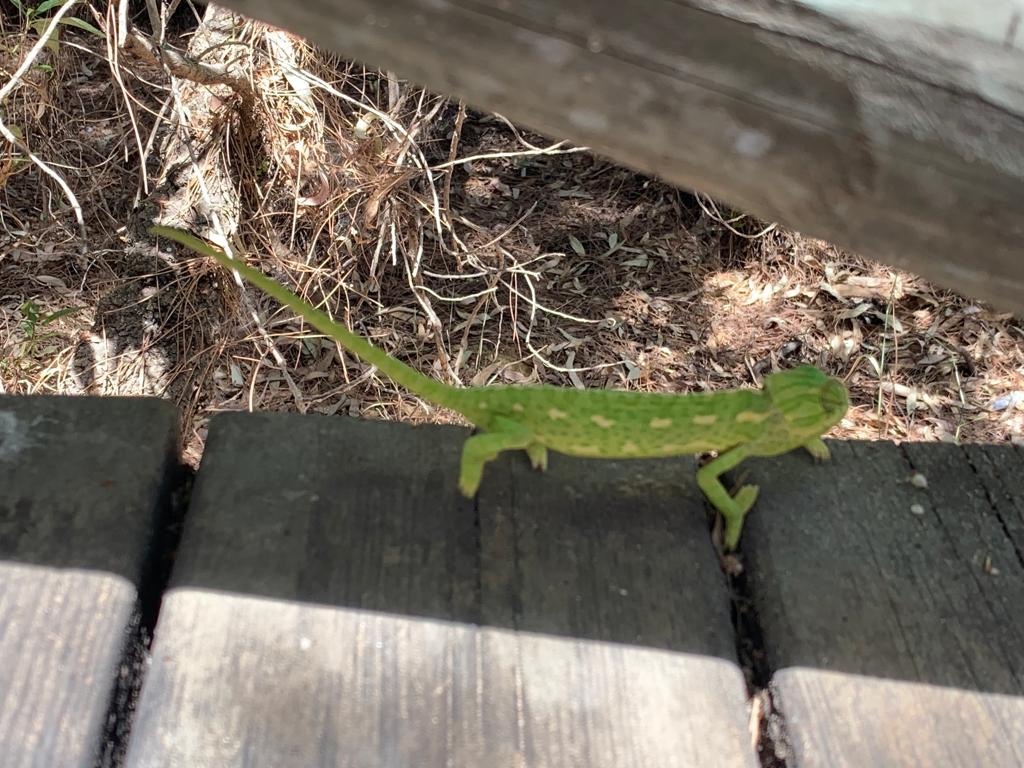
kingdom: Animalia
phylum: Chordata
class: Squamata
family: Chamaeleonidae
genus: Chamaeleo
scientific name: Chamaeleo chamaeleon
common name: Mediterranean chameleon
